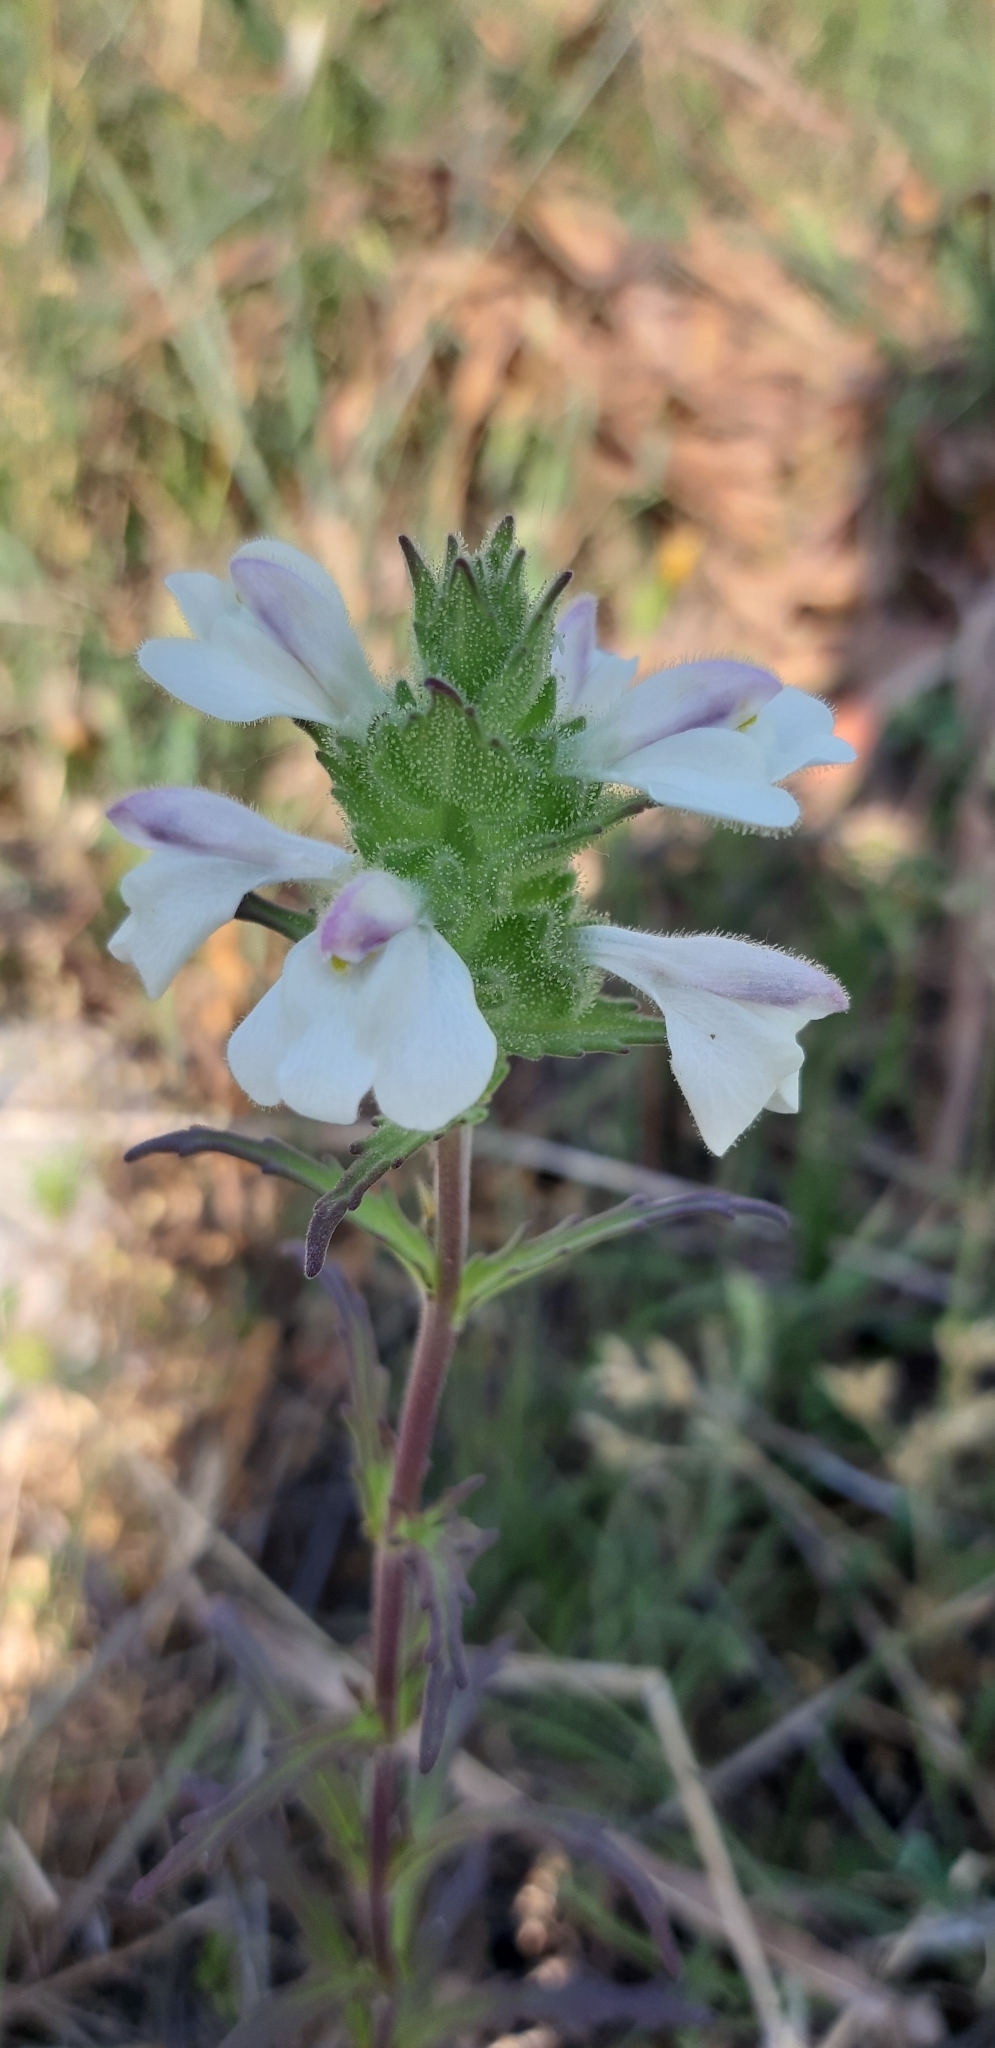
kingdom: Plantae
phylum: Tracheophyta
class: Magnoliopsida
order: Lamiales
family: Orobanchaceae
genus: Bellardia
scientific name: Bellardia trixago
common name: Mediterranean lineseed
